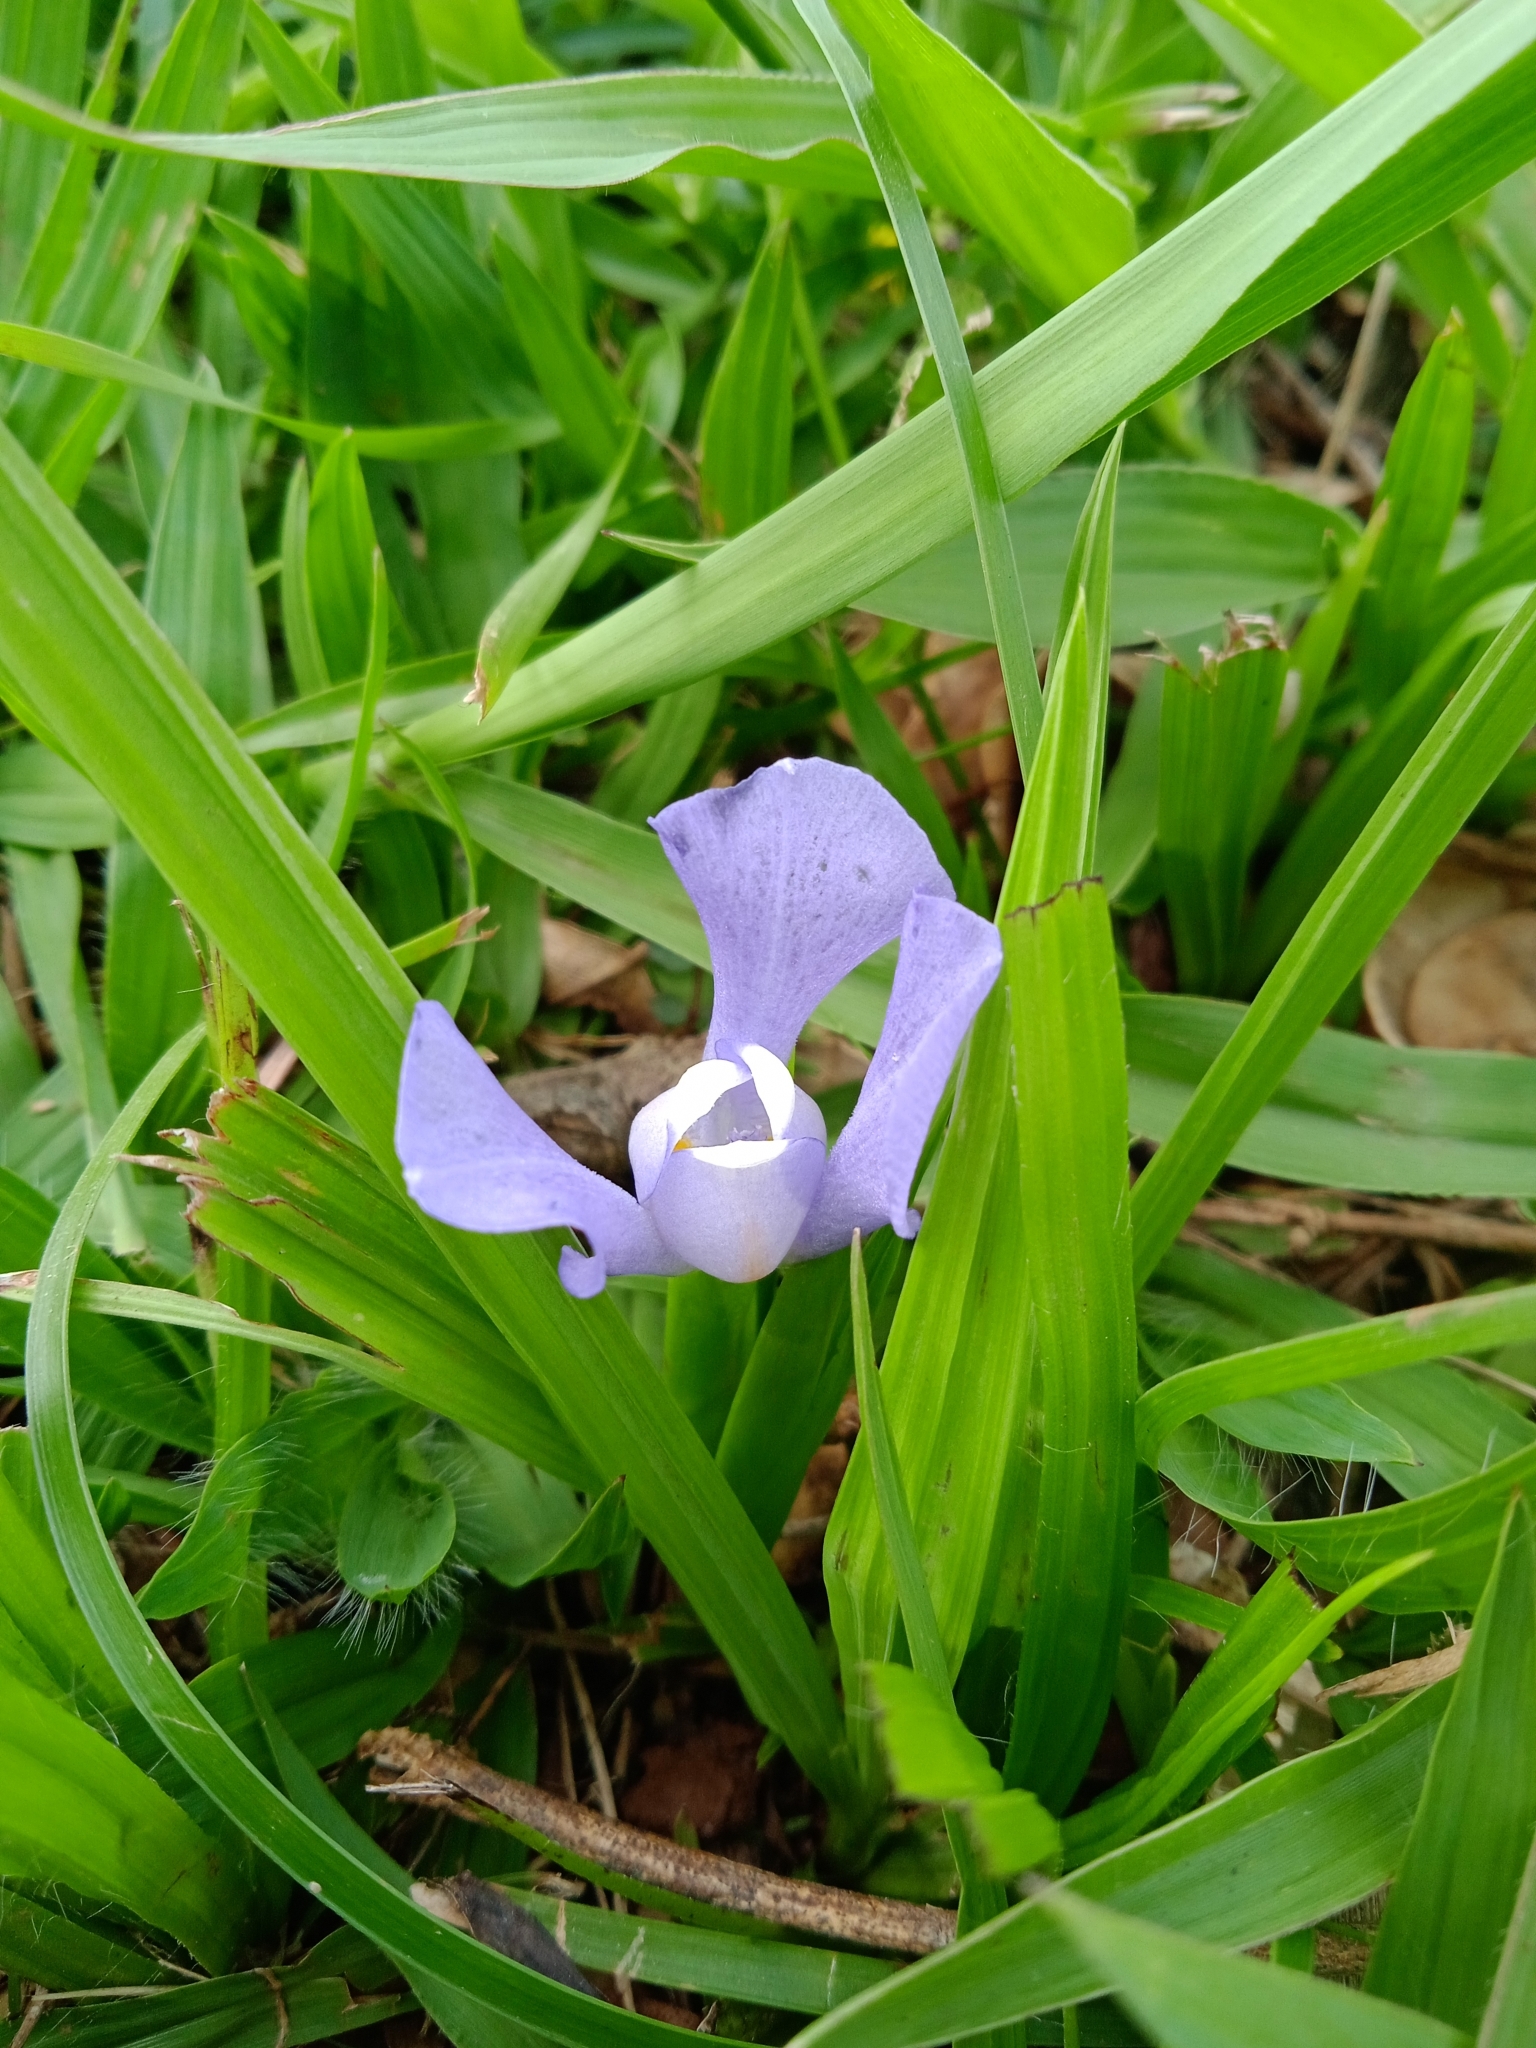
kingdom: Plantae
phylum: Tracheophyta
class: Liliopsida
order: Asparagales
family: Iridaceae
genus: Cipura
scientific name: Cipura paludosa
